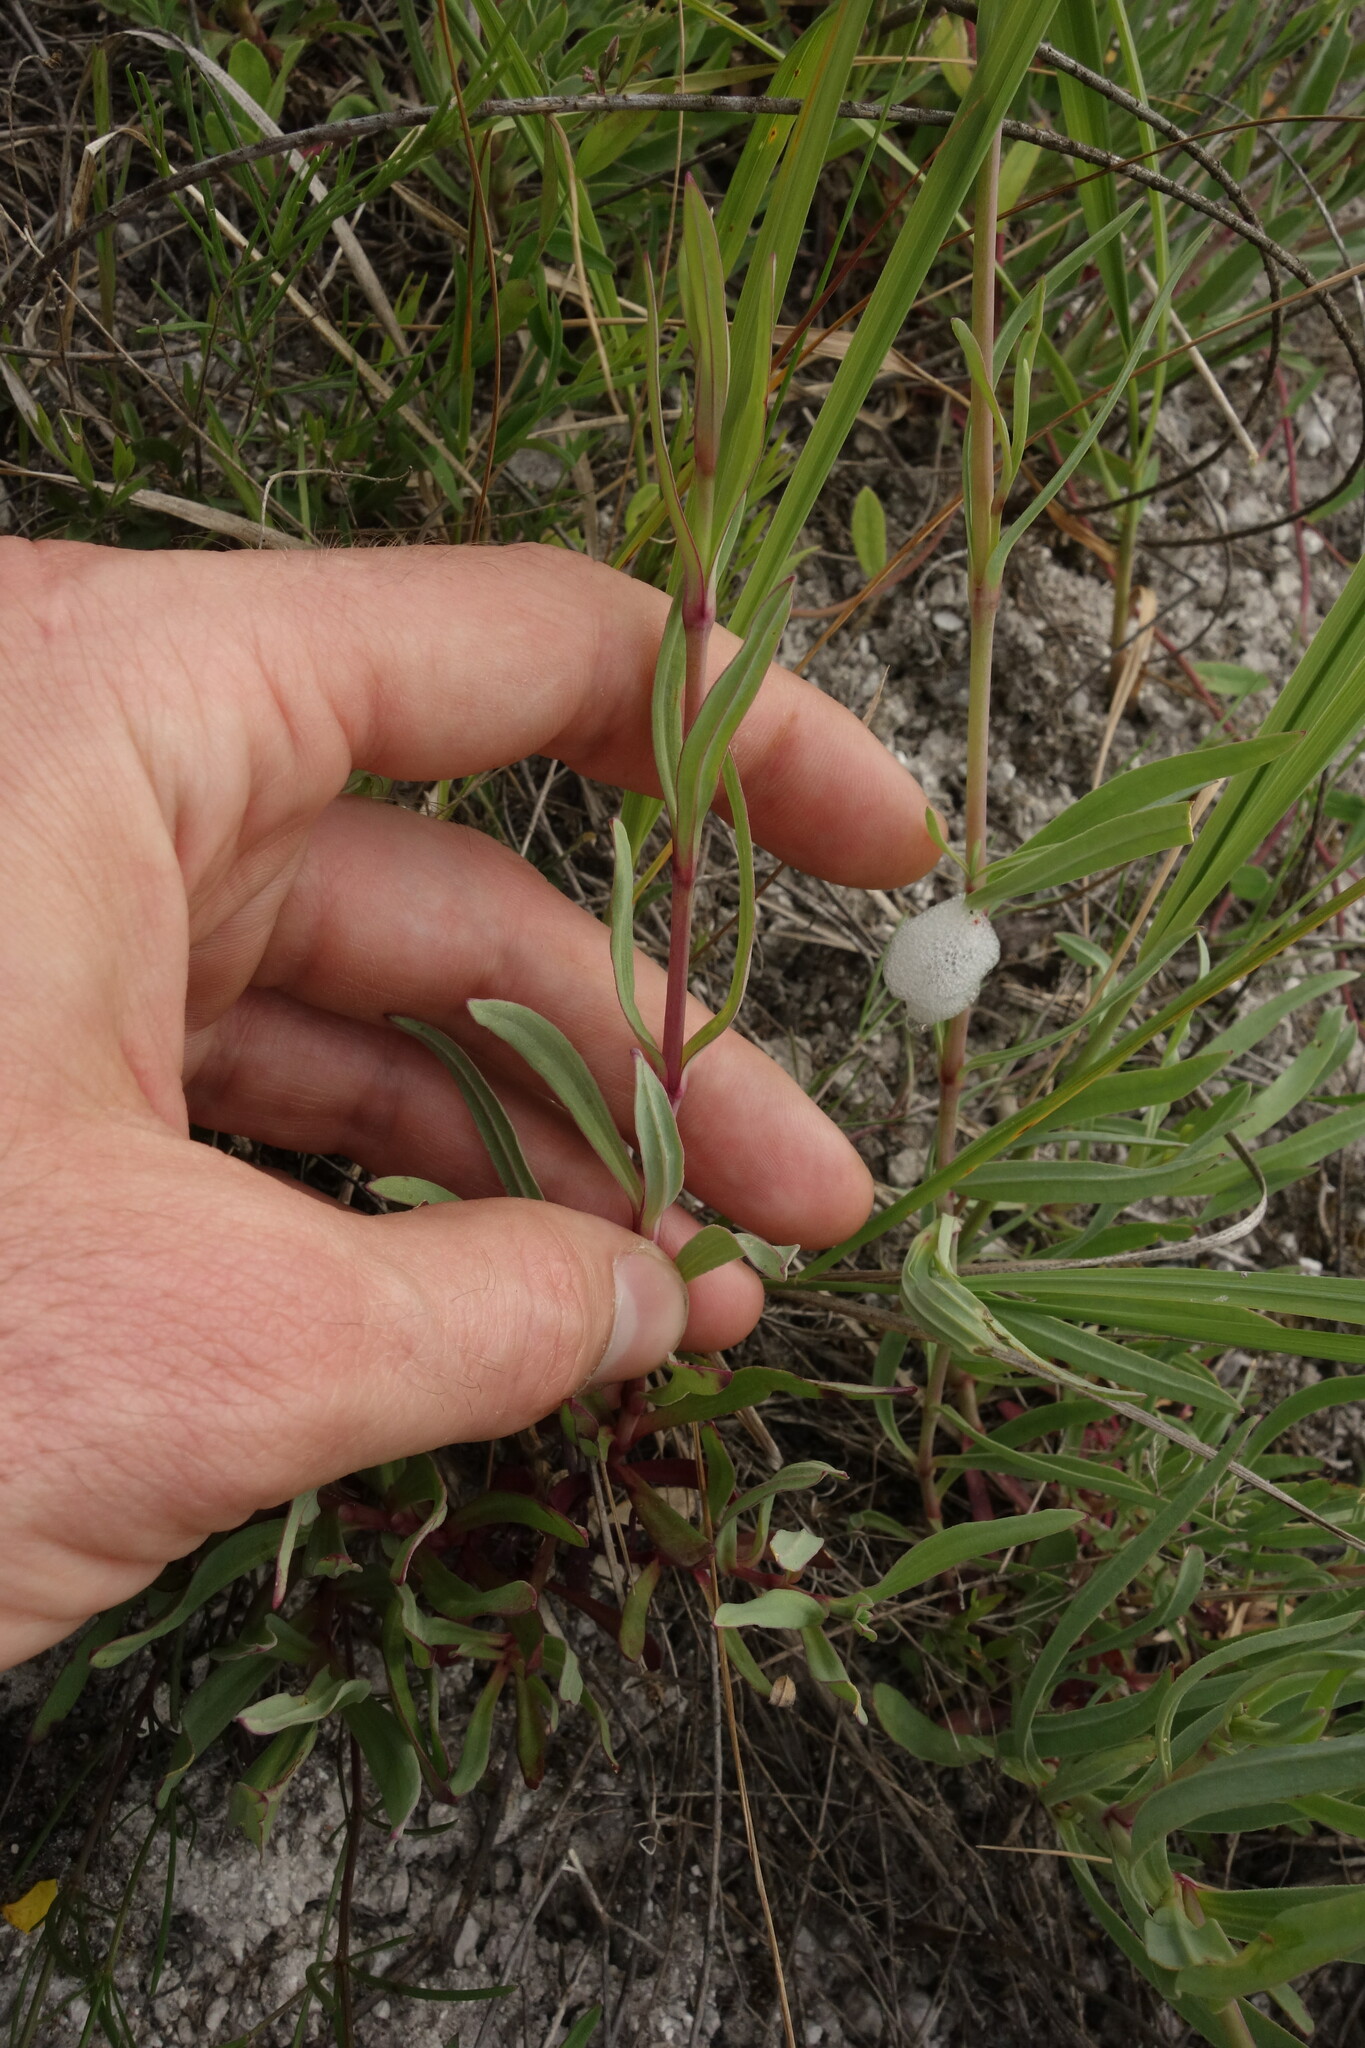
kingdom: Plantae
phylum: Tracheophyta
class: Magnoliopsida
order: Caryophyllales
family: Caryophyllaceae
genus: Gypsophila
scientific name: Gypsophila altissima
